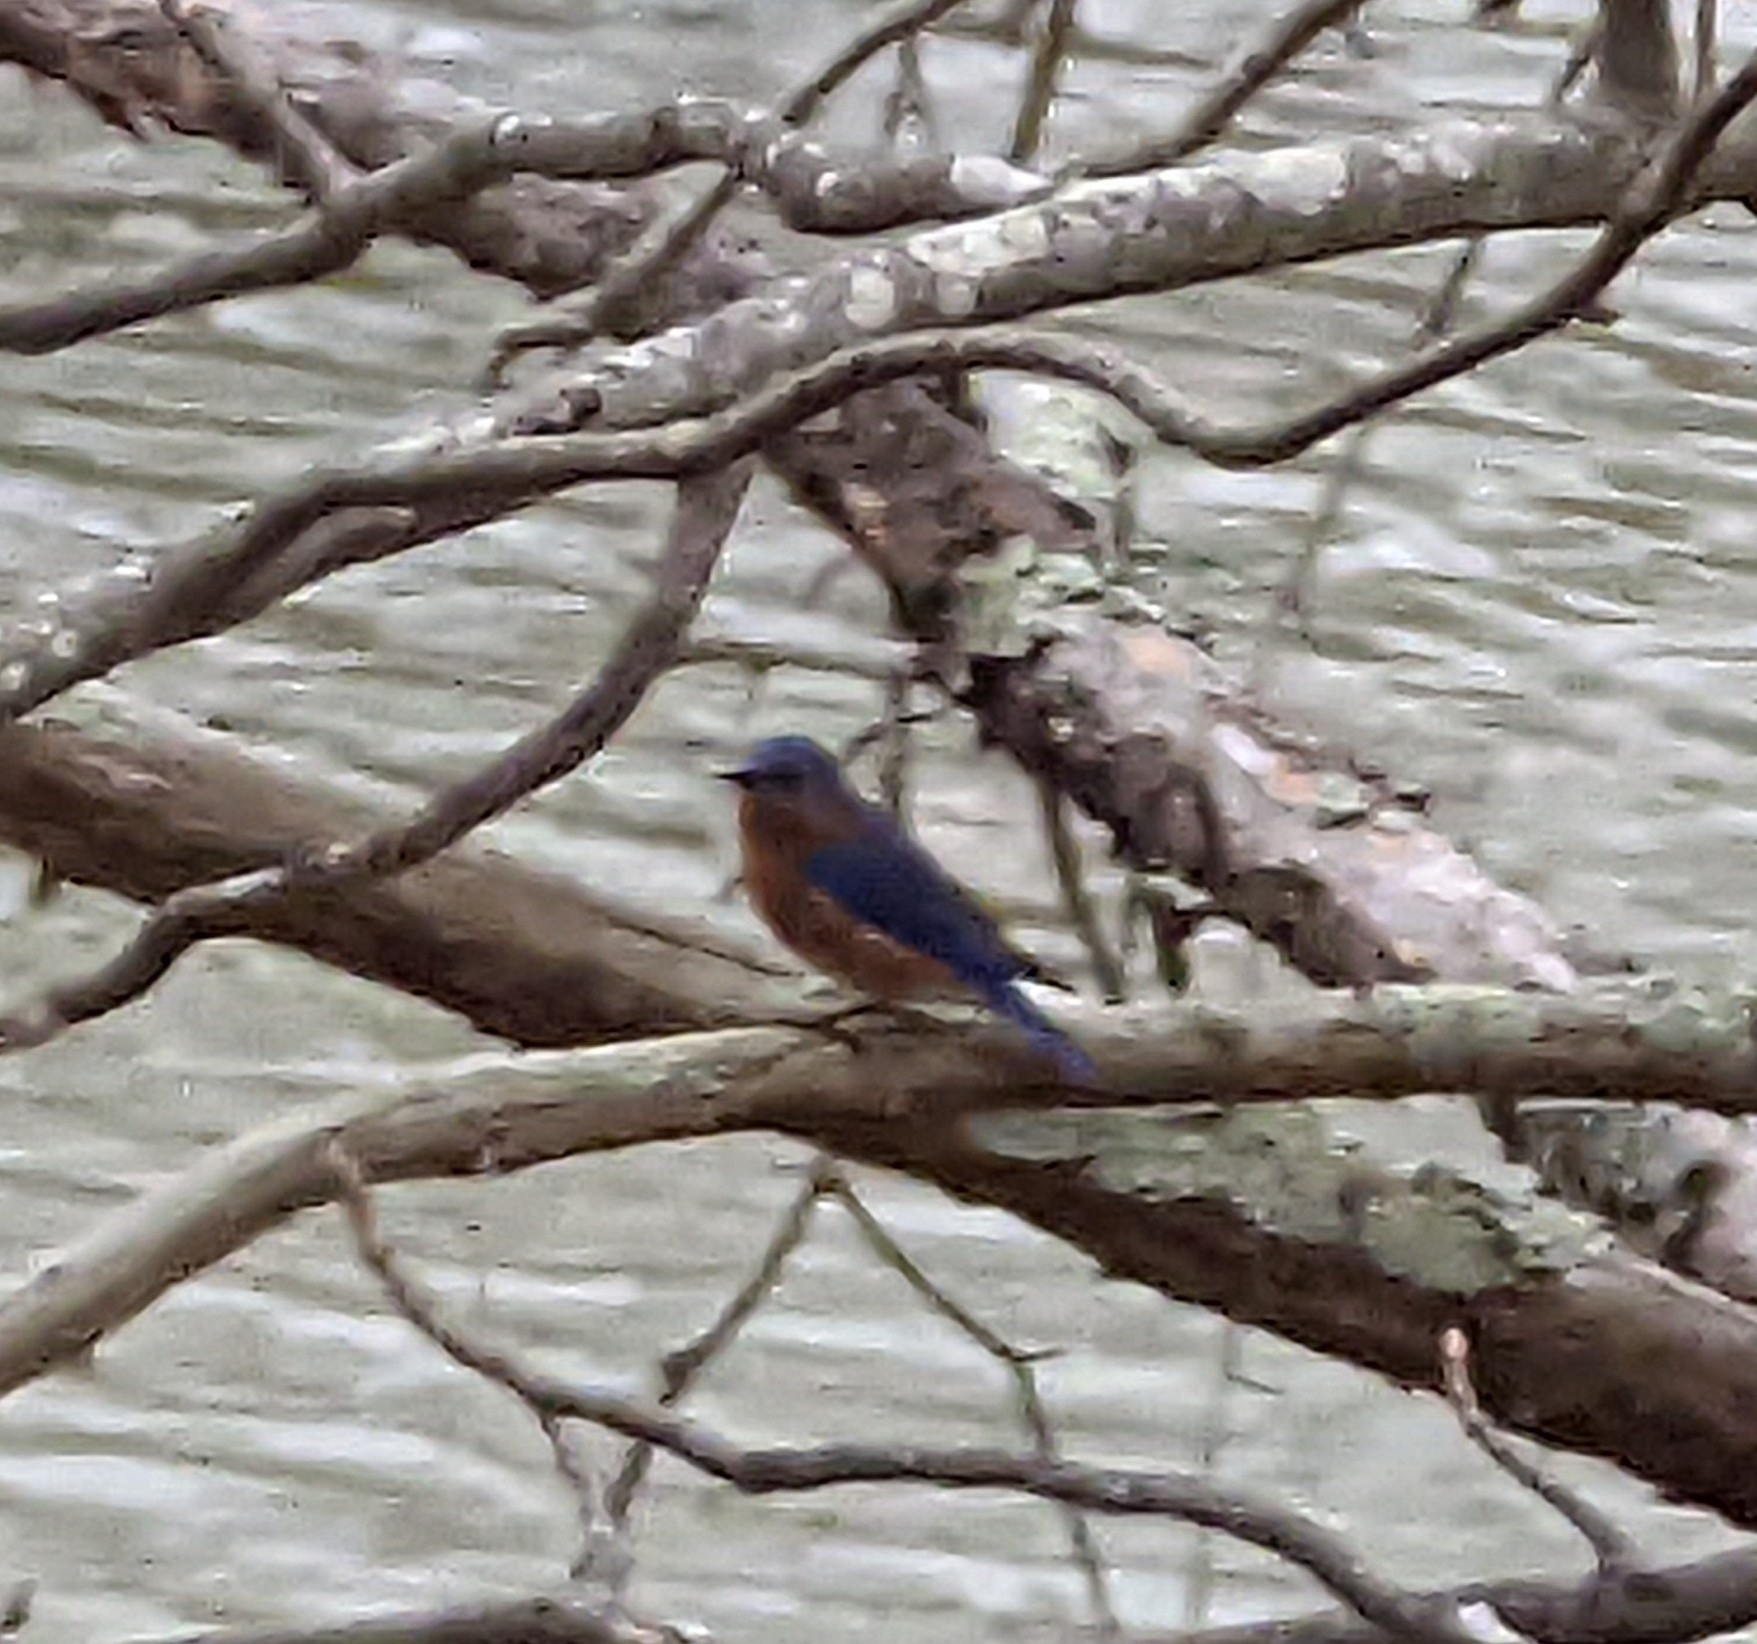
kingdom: Animalia
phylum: Chordata
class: Aves
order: Passeriformes
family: Turdidae
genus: Sialia
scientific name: Sialia sialis
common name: Eastern bluebird
